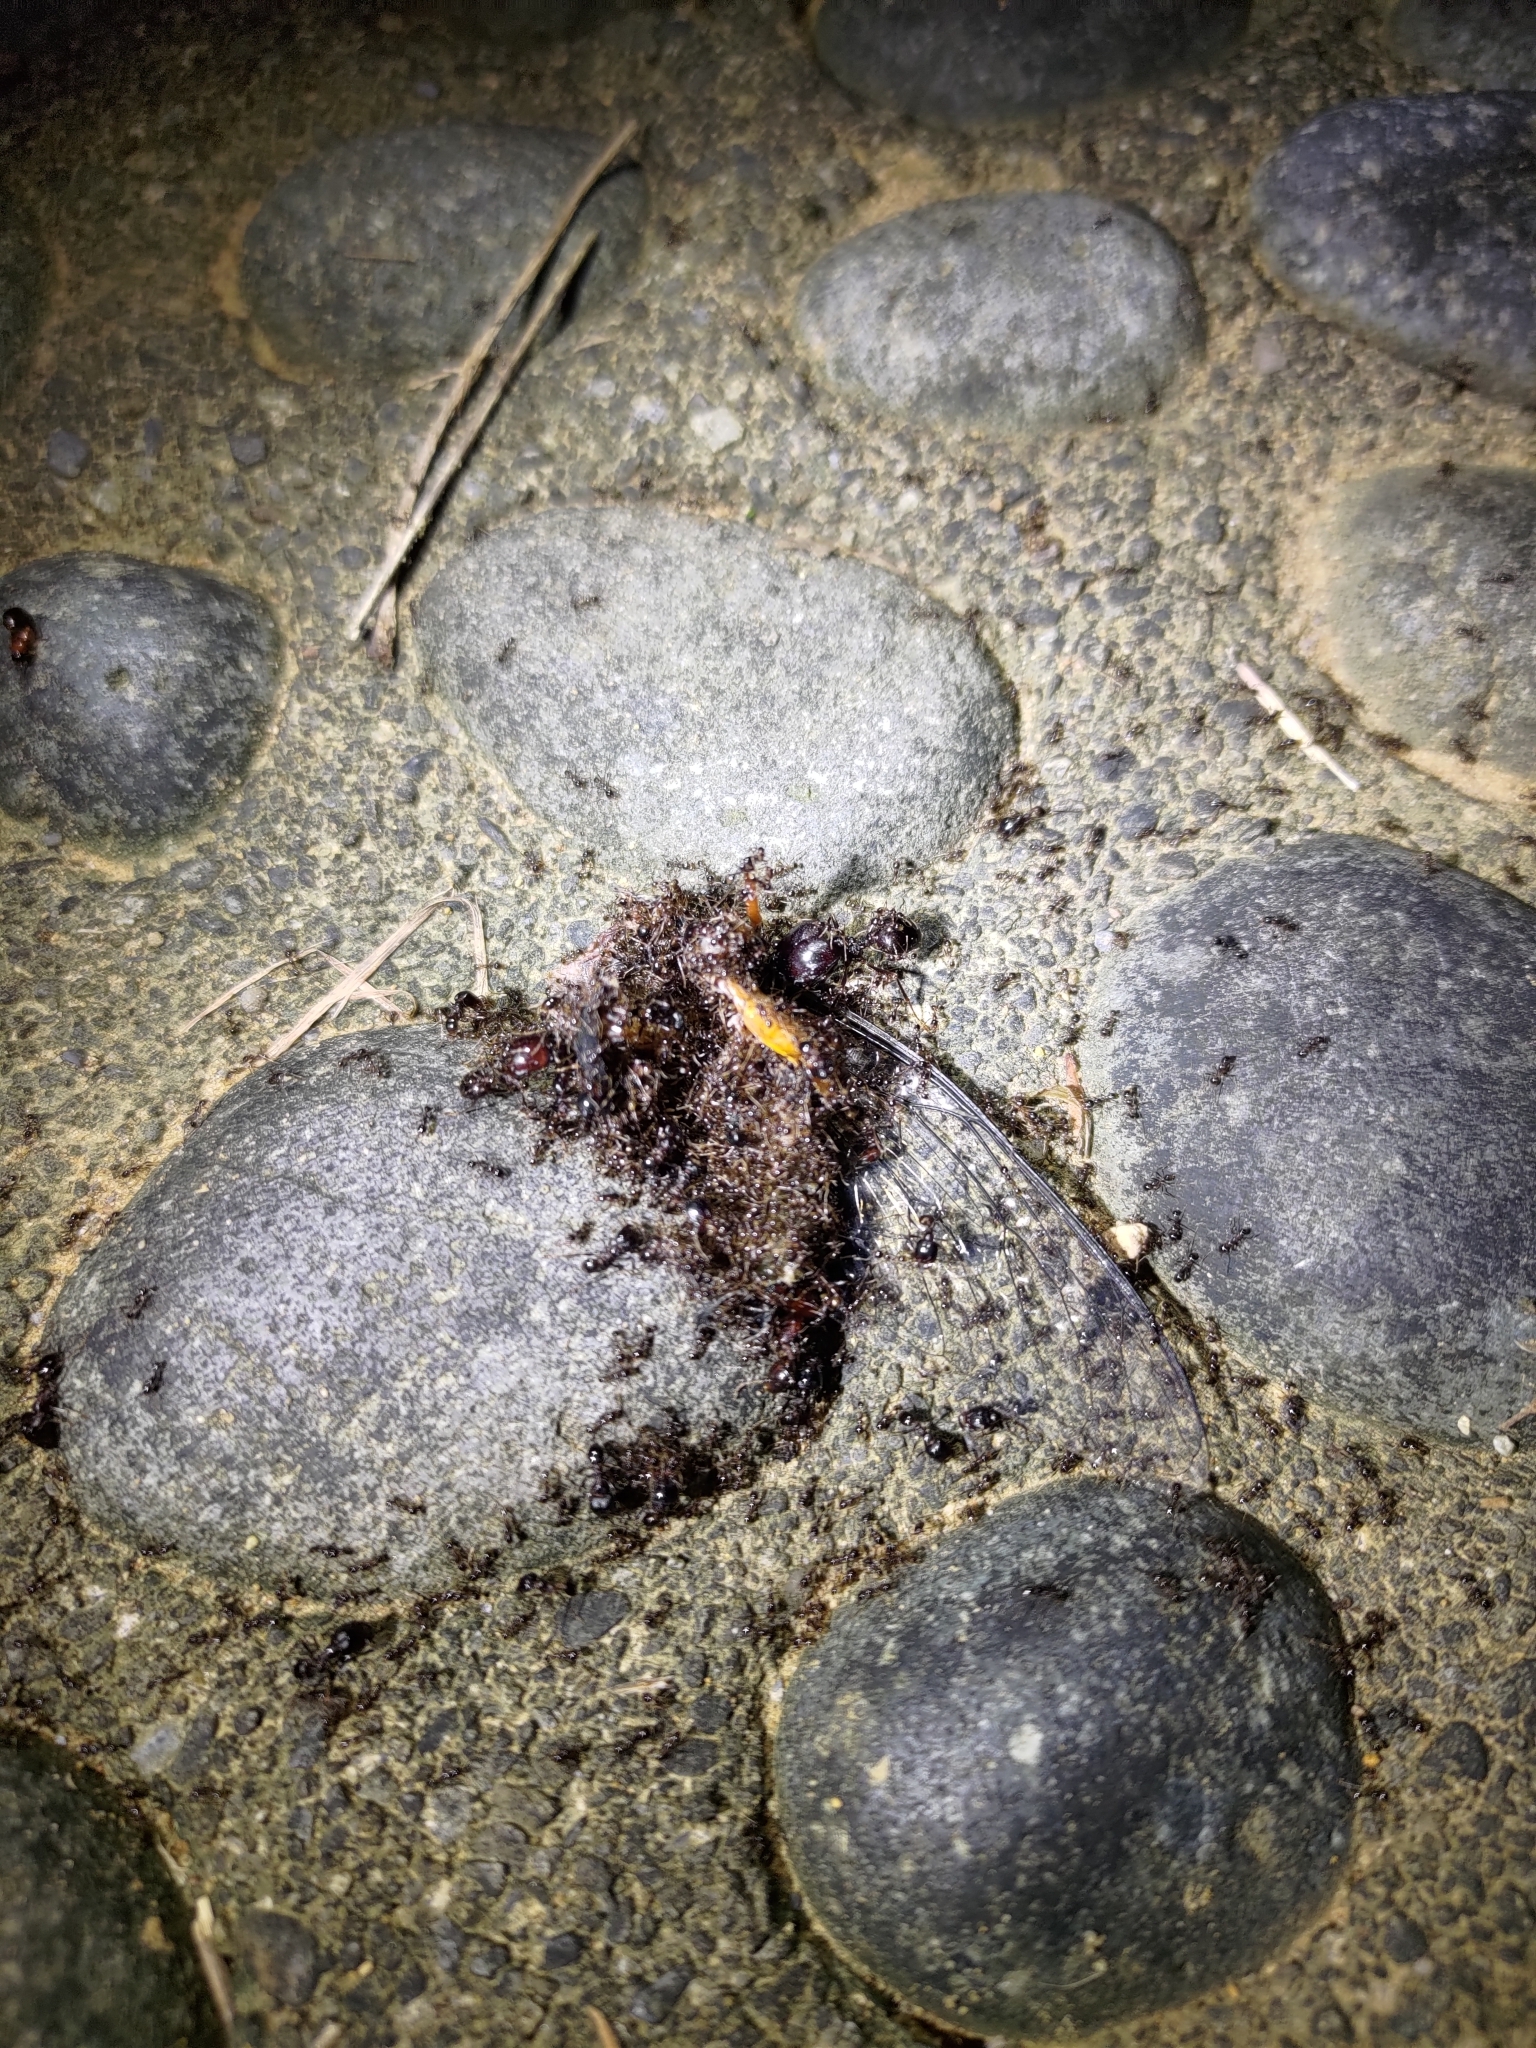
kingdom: Animalia
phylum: Arthropoda
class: Insecta
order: Hymenoptera
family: Formicidae
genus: Pheidologeton
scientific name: Pheidologeton diversus
